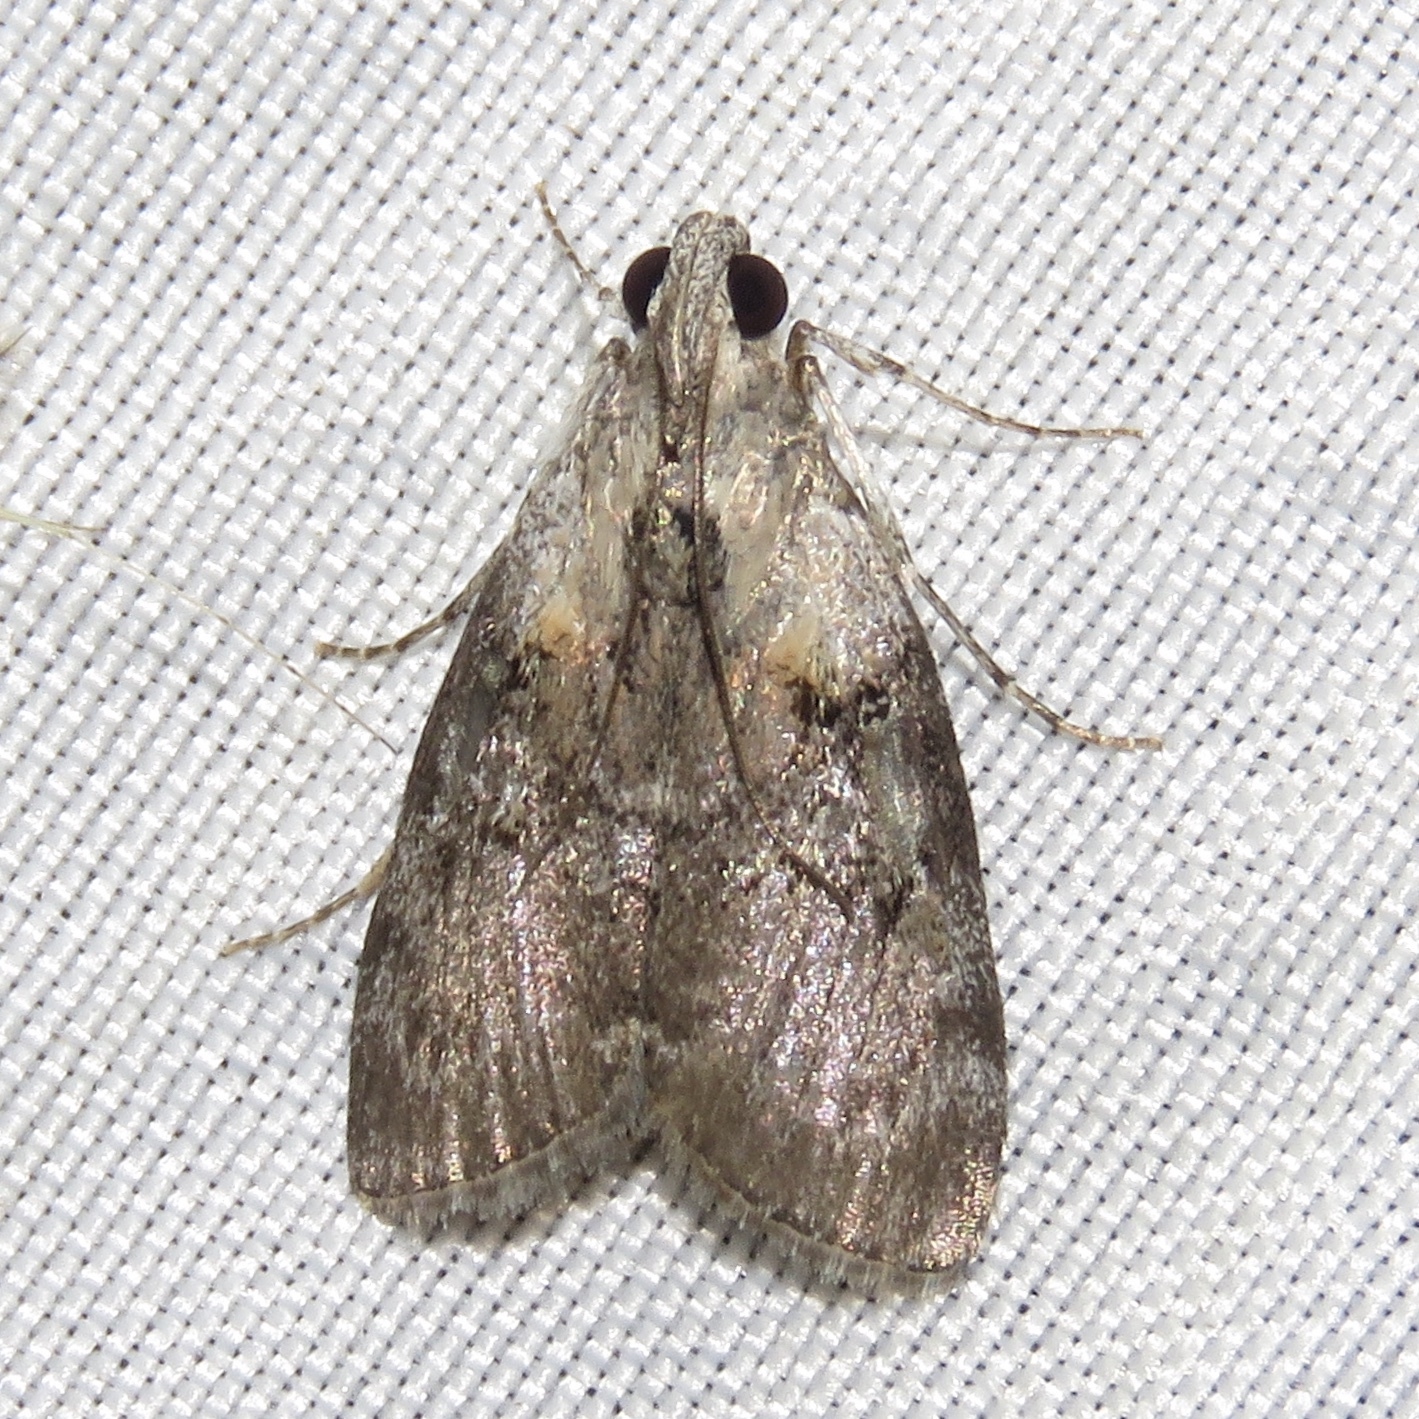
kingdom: Animalia
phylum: Arthropoda
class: Insecta
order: Lepidoptera
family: Pyralidae
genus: Pococera
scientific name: Pococera expandens
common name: Striped oak webworm moth
